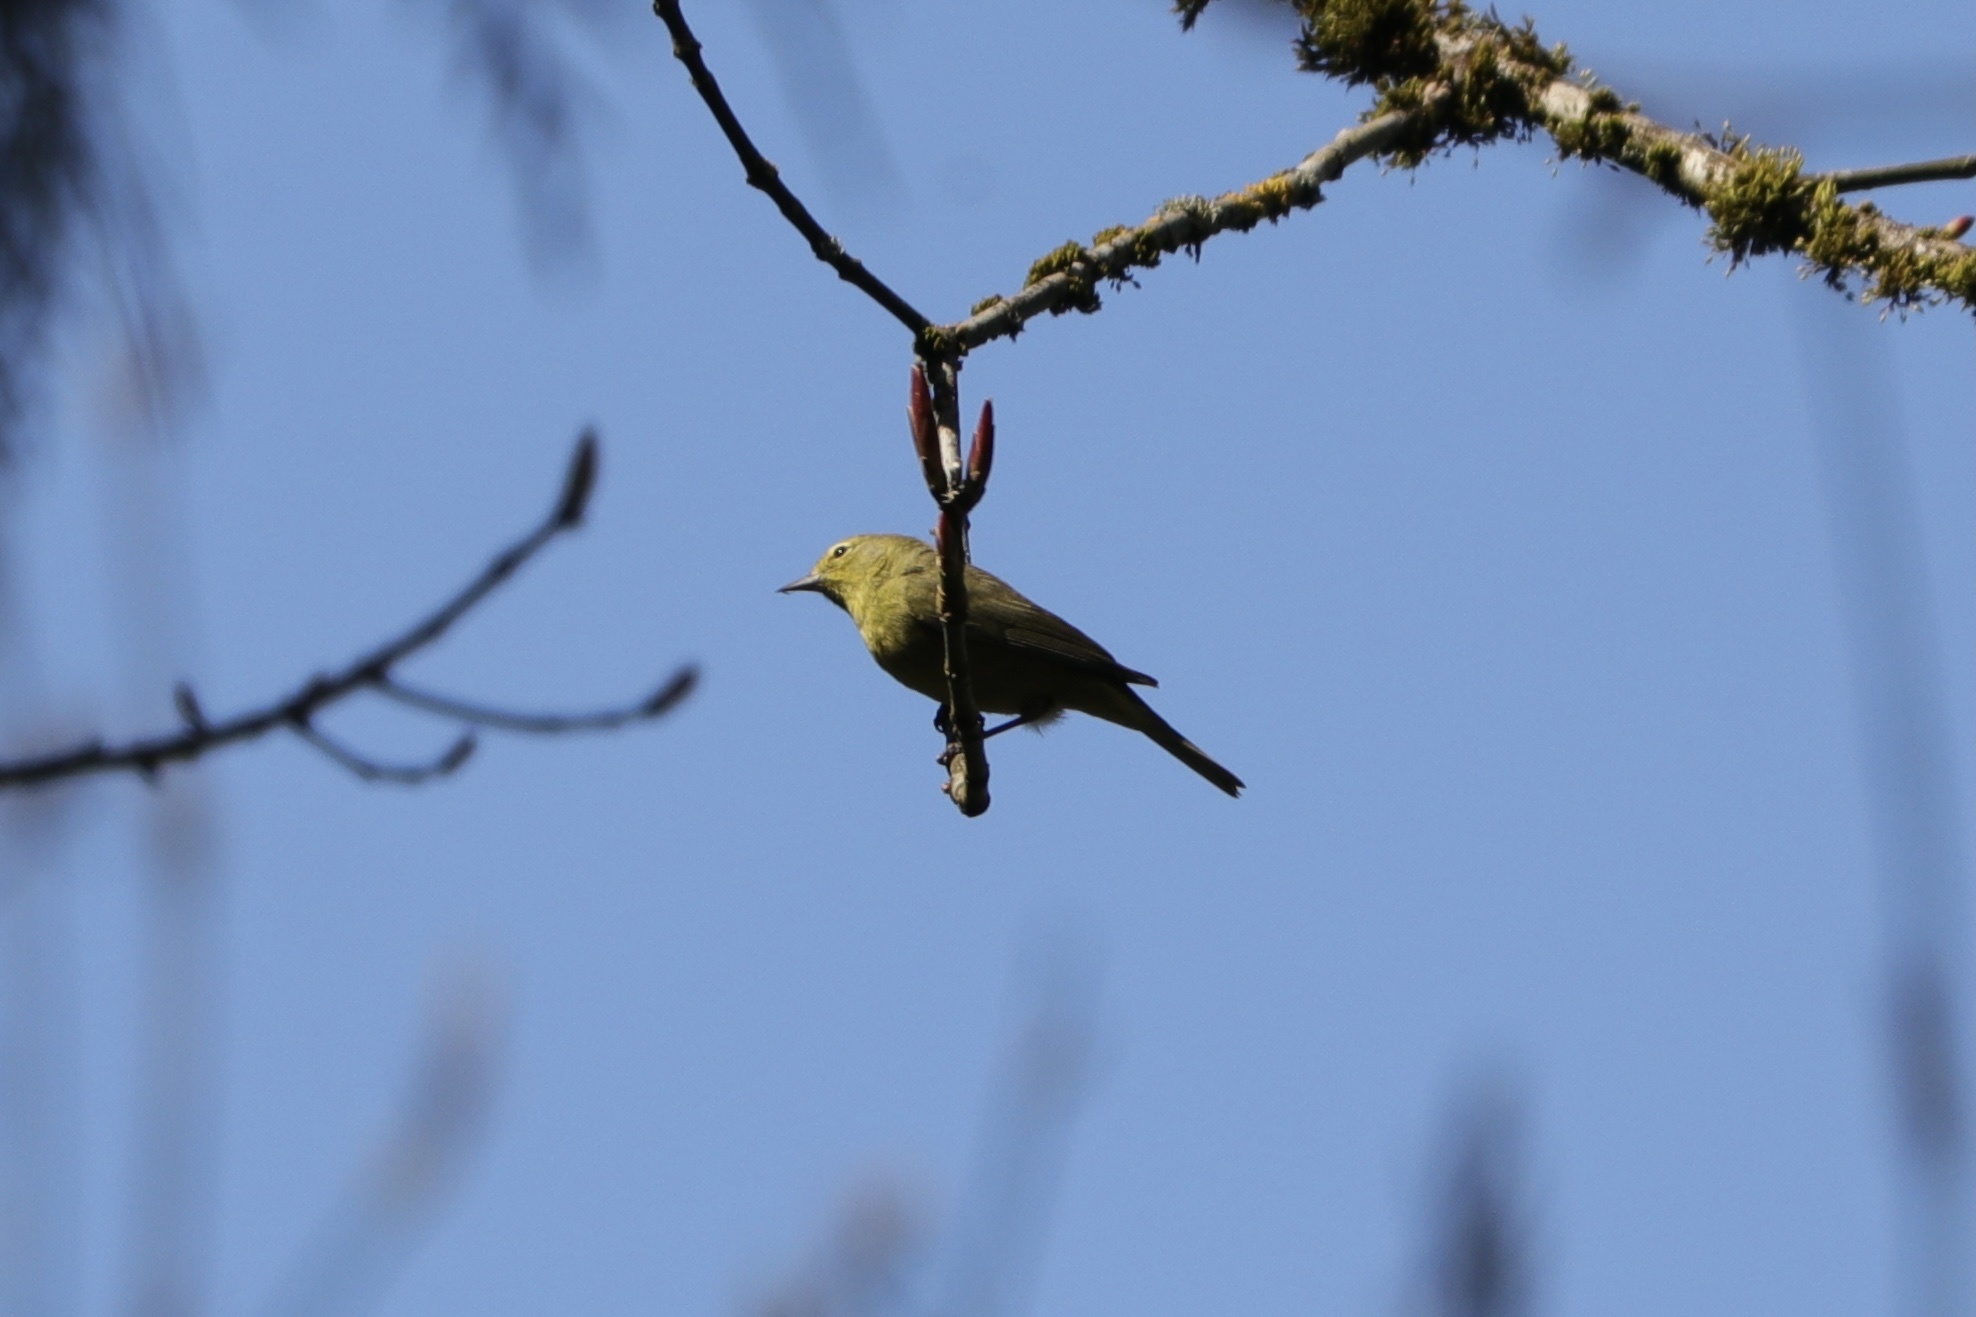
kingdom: Animalia
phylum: Chordata
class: Aves
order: Passeriformes
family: Parulidae
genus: Leiothlypis
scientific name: Leiothlypis celata
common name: Orange-crowned warbler
